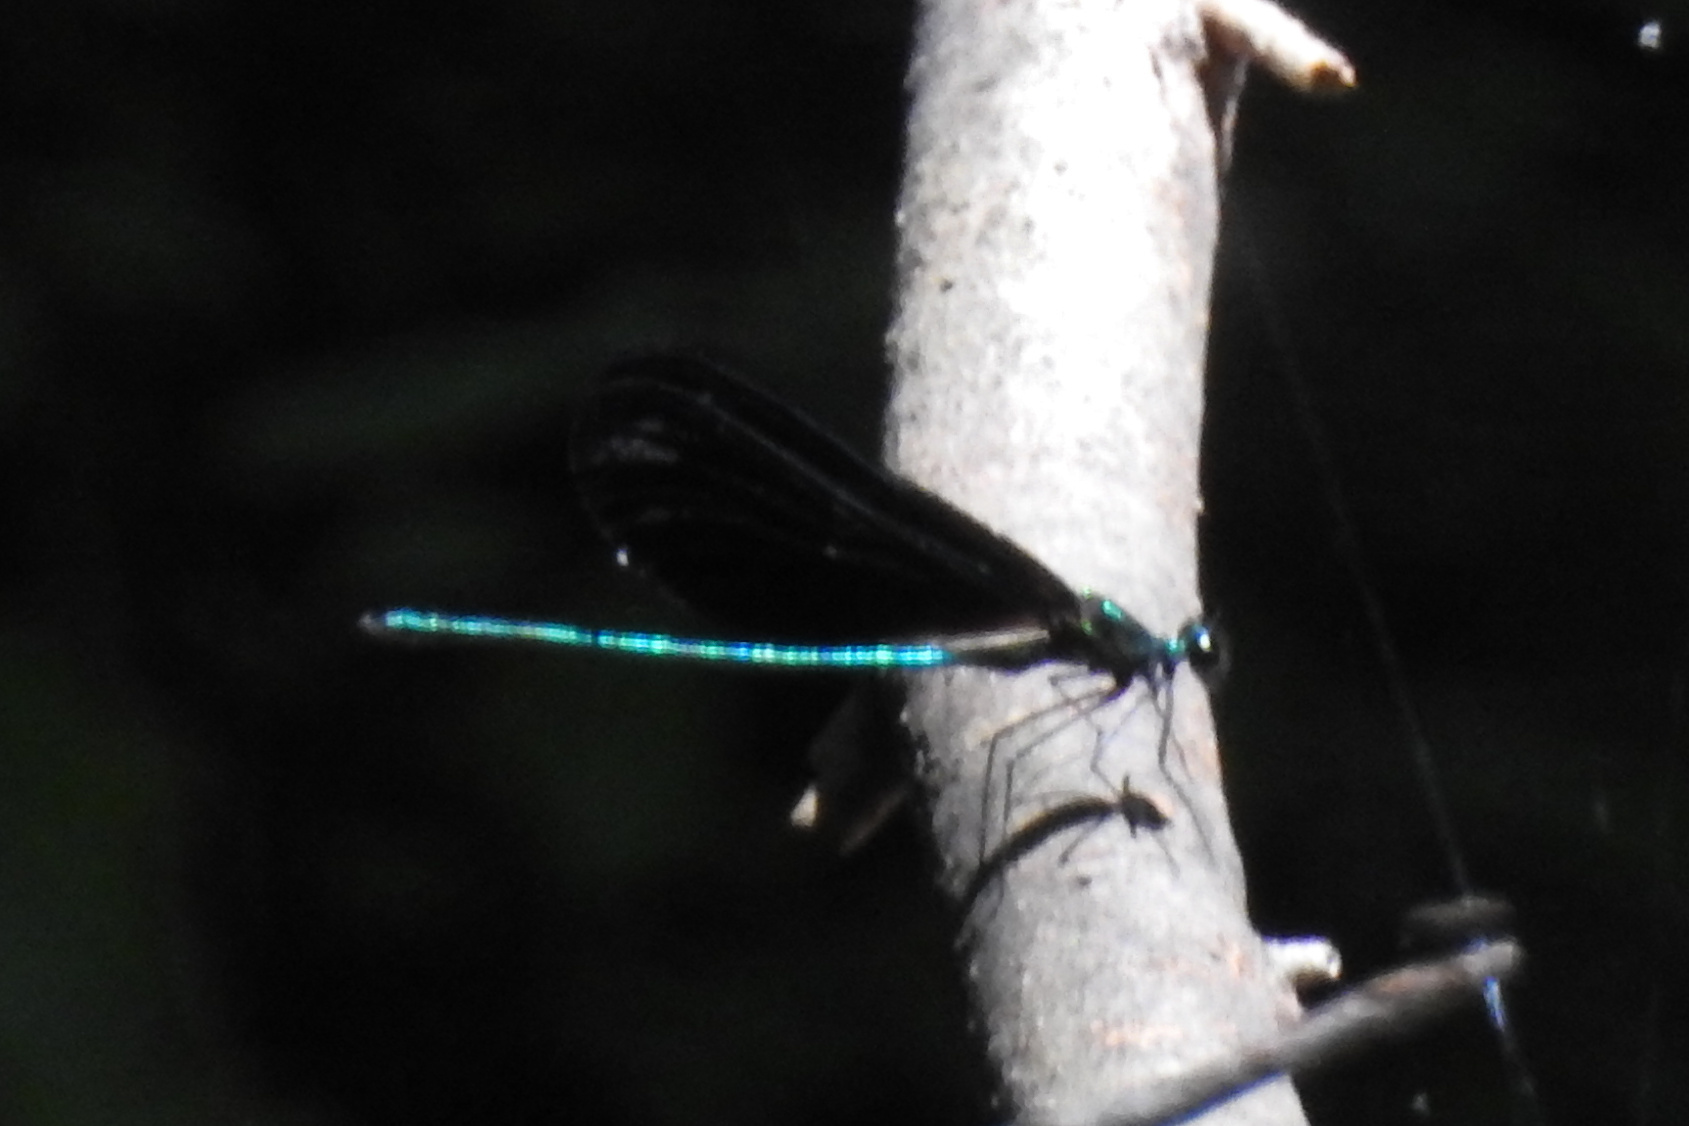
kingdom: Animalia
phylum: Arthropoda
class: Insecta
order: Odonata
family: Calopterygidae
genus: Calopteryx
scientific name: Calopteryx maculata
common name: Ebony jewelwing
